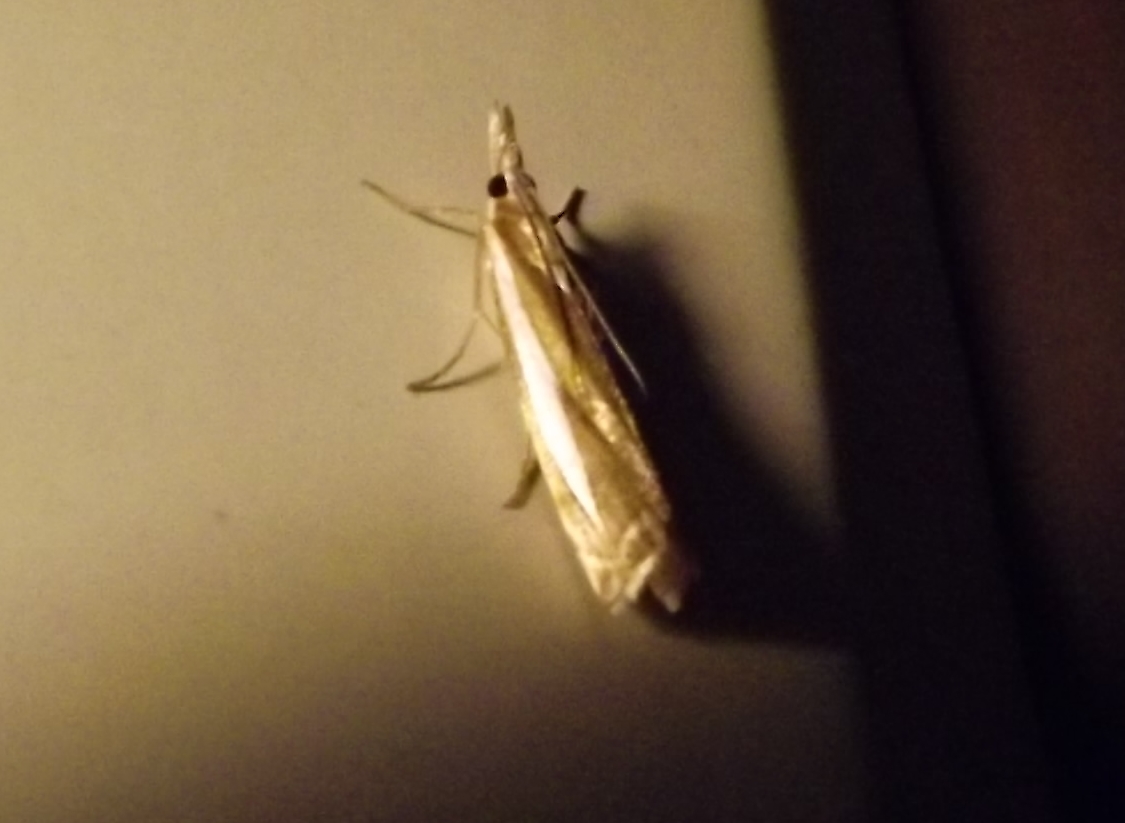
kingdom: Animalia
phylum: Arthropoda
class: Insecta
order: Lepidoptera
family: Crambidae
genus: Crambus
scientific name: Crambus praefectellus
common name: Common grass-veneer
